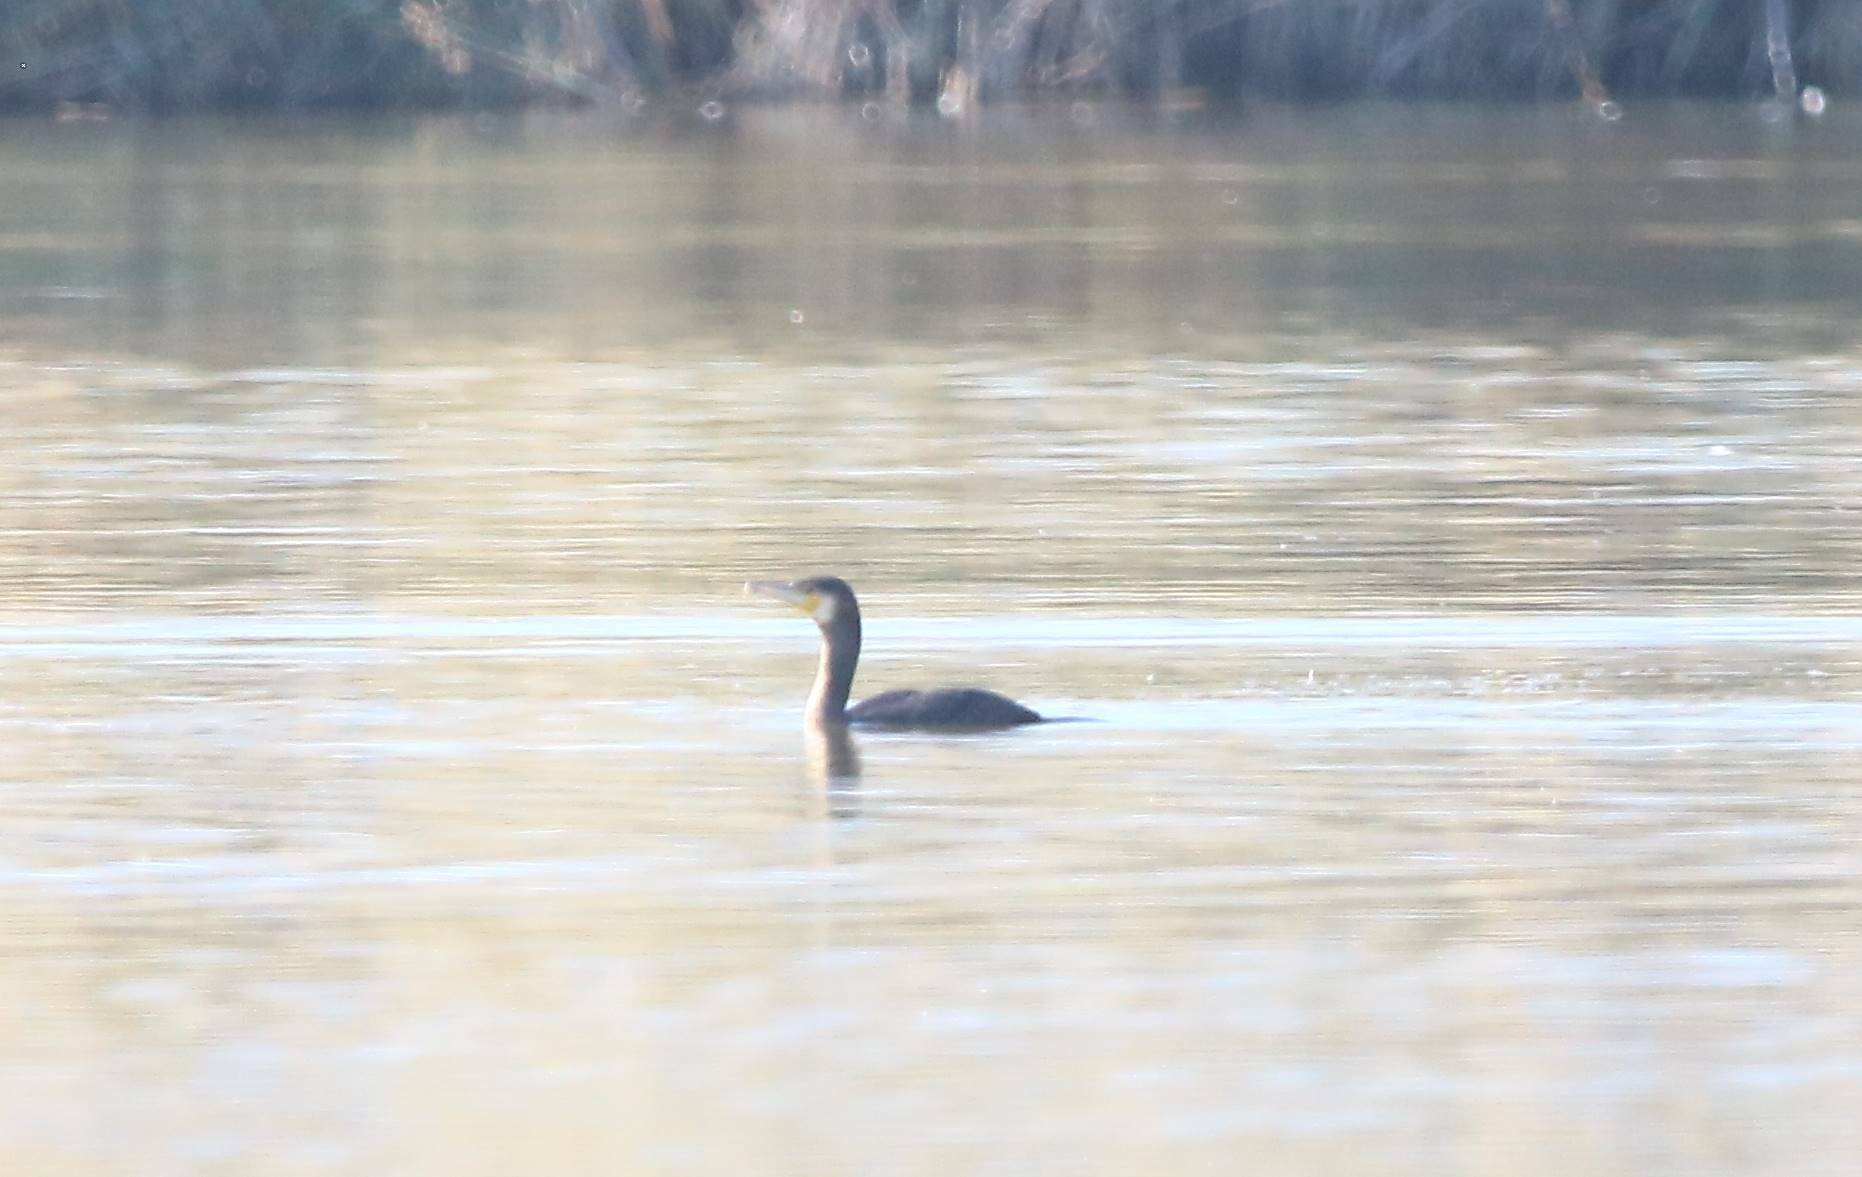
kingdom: Animalia
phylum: Chordata
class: Aves
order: Suliformes
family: Phalacrocoracidae
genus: Phalacrocorax
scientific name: Phalacrocorax carbo
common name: Great cormorant
